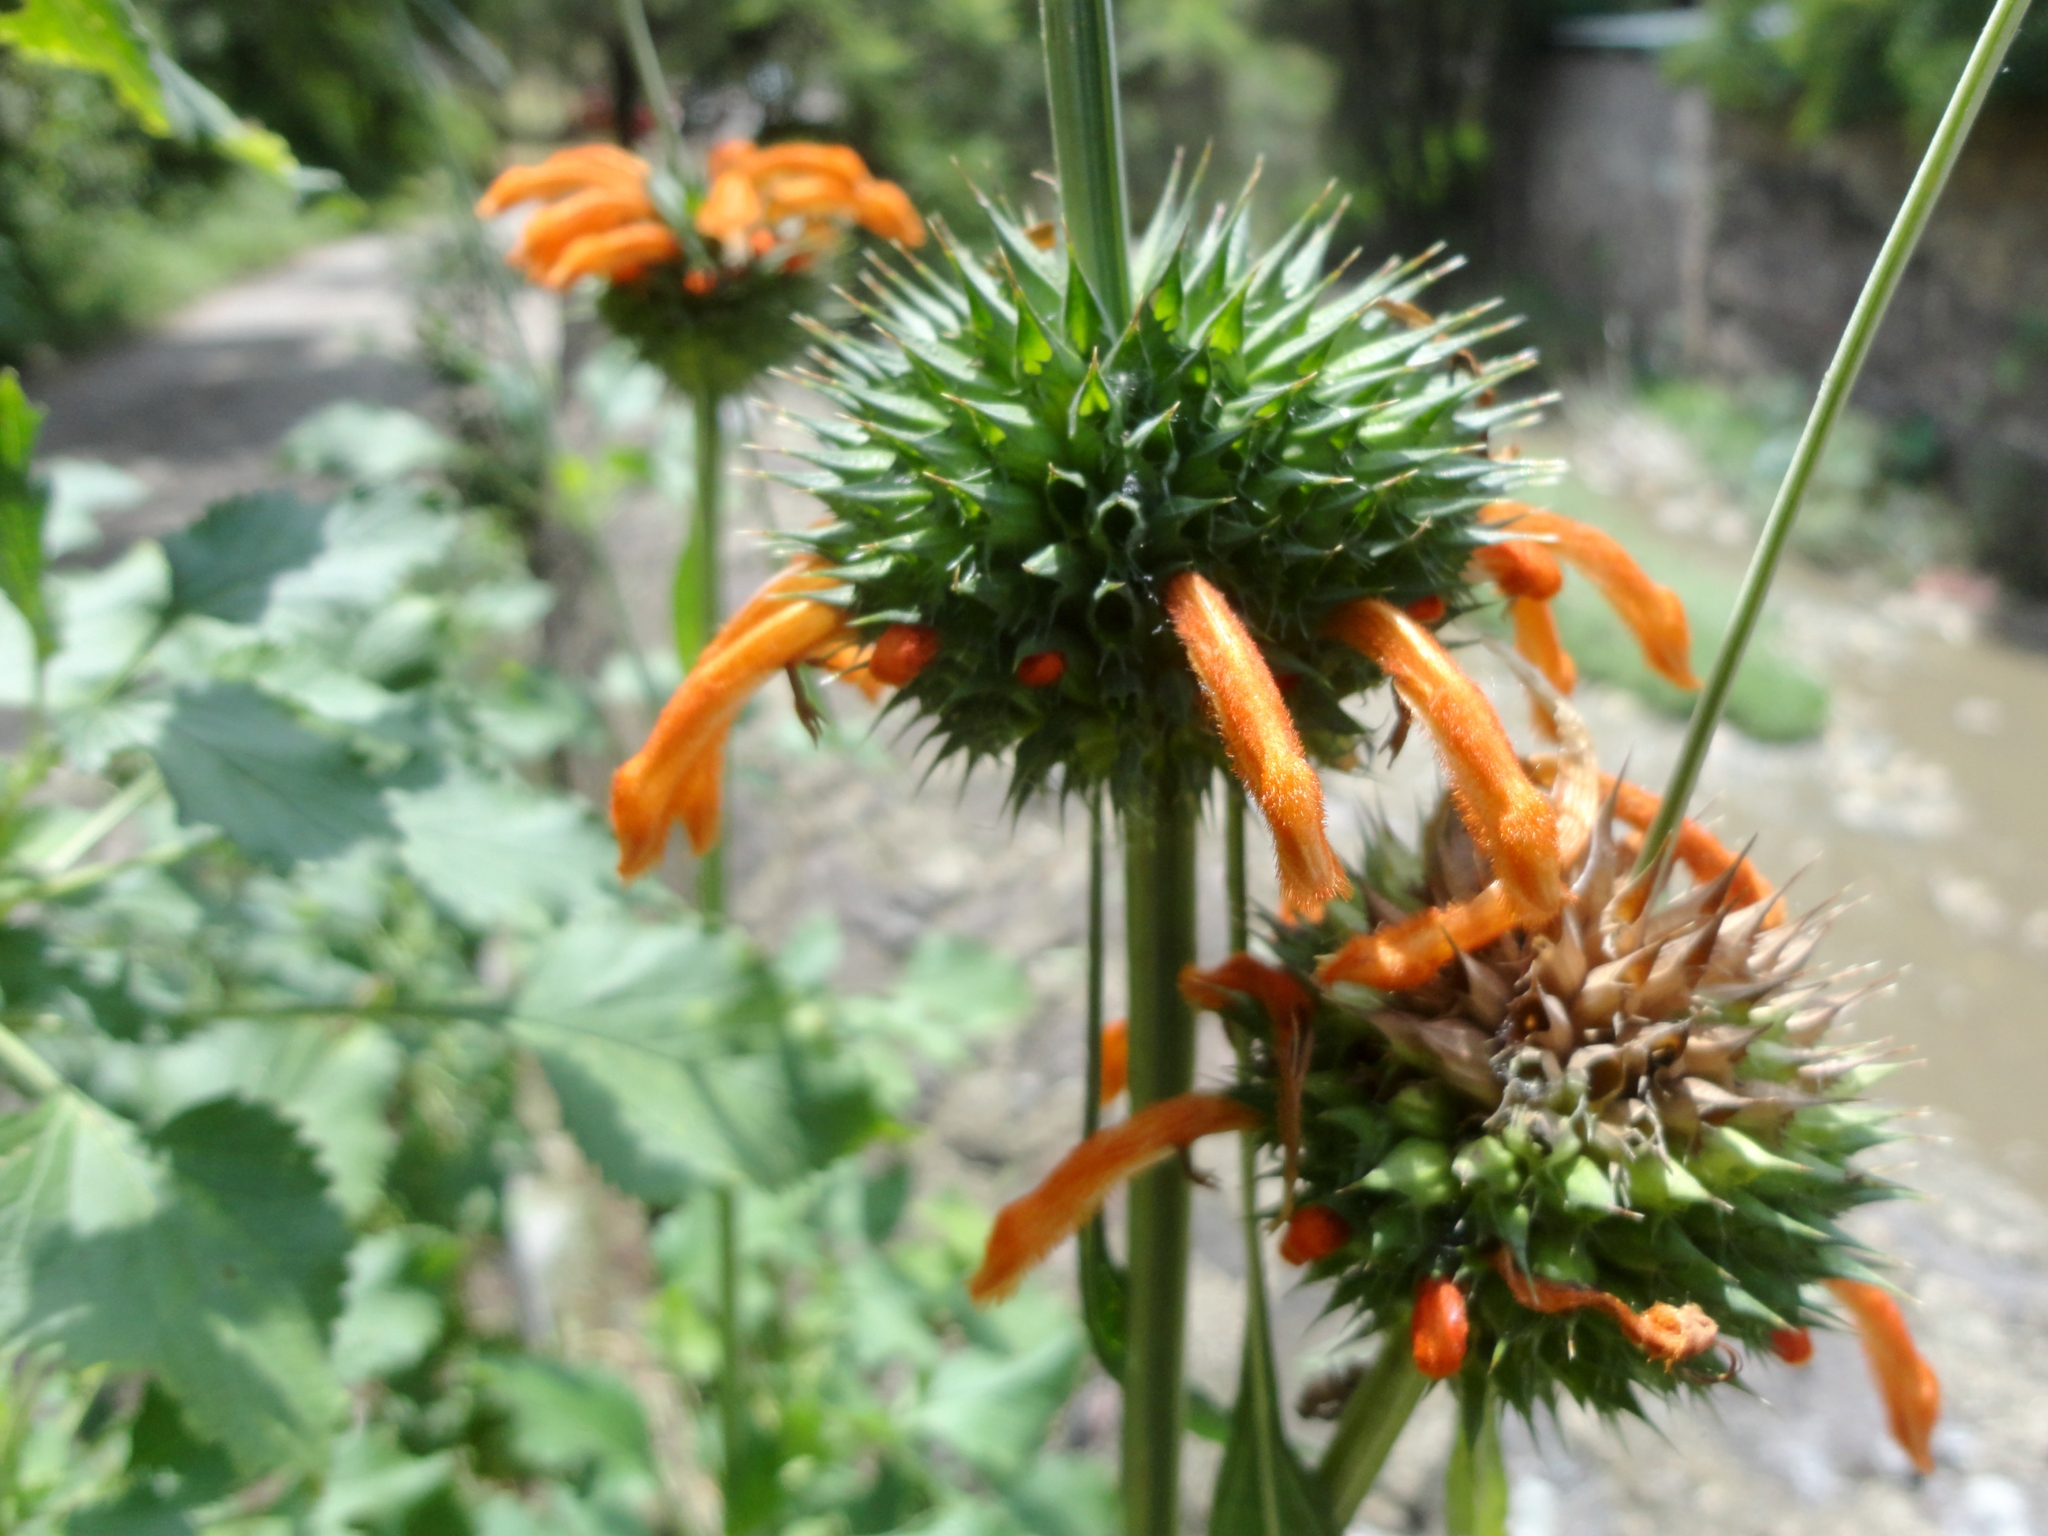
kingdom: Plantae
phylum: Tracheophyta
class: Magnoliopsida
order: Lamiales
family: Lamiaceae
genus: Leonotis
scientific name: Leonotis nepetifolia
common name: Christmas candlestick
